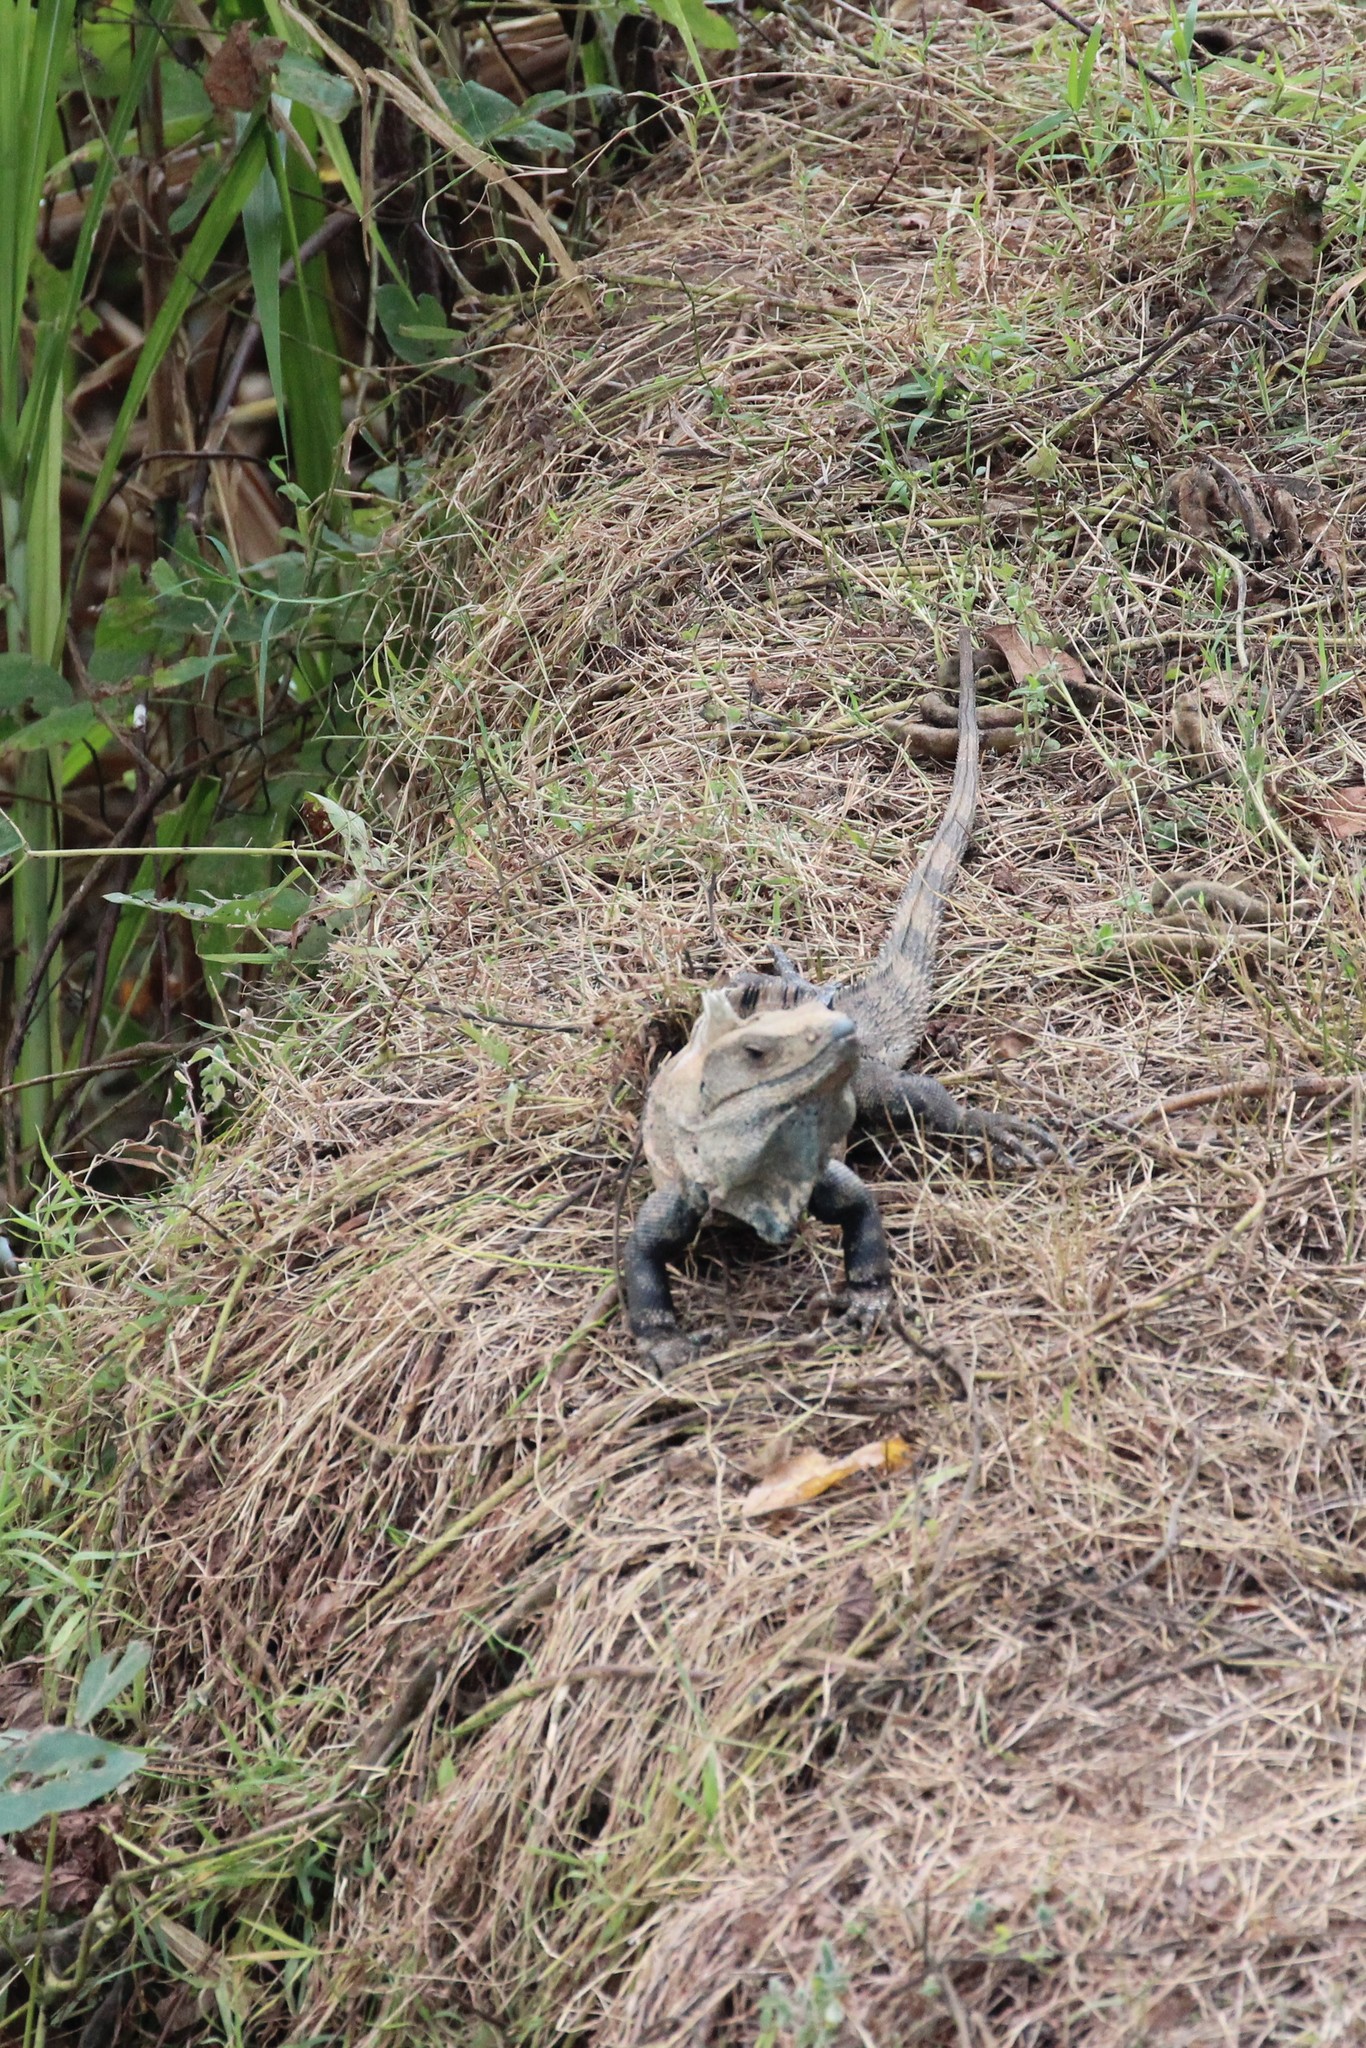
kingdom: Animalia
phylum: Chordata
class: Squamata
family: Iguanidae
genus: Ctenosaura
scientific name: Ctenosaura similis
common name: Black spiny-tailed iguana
